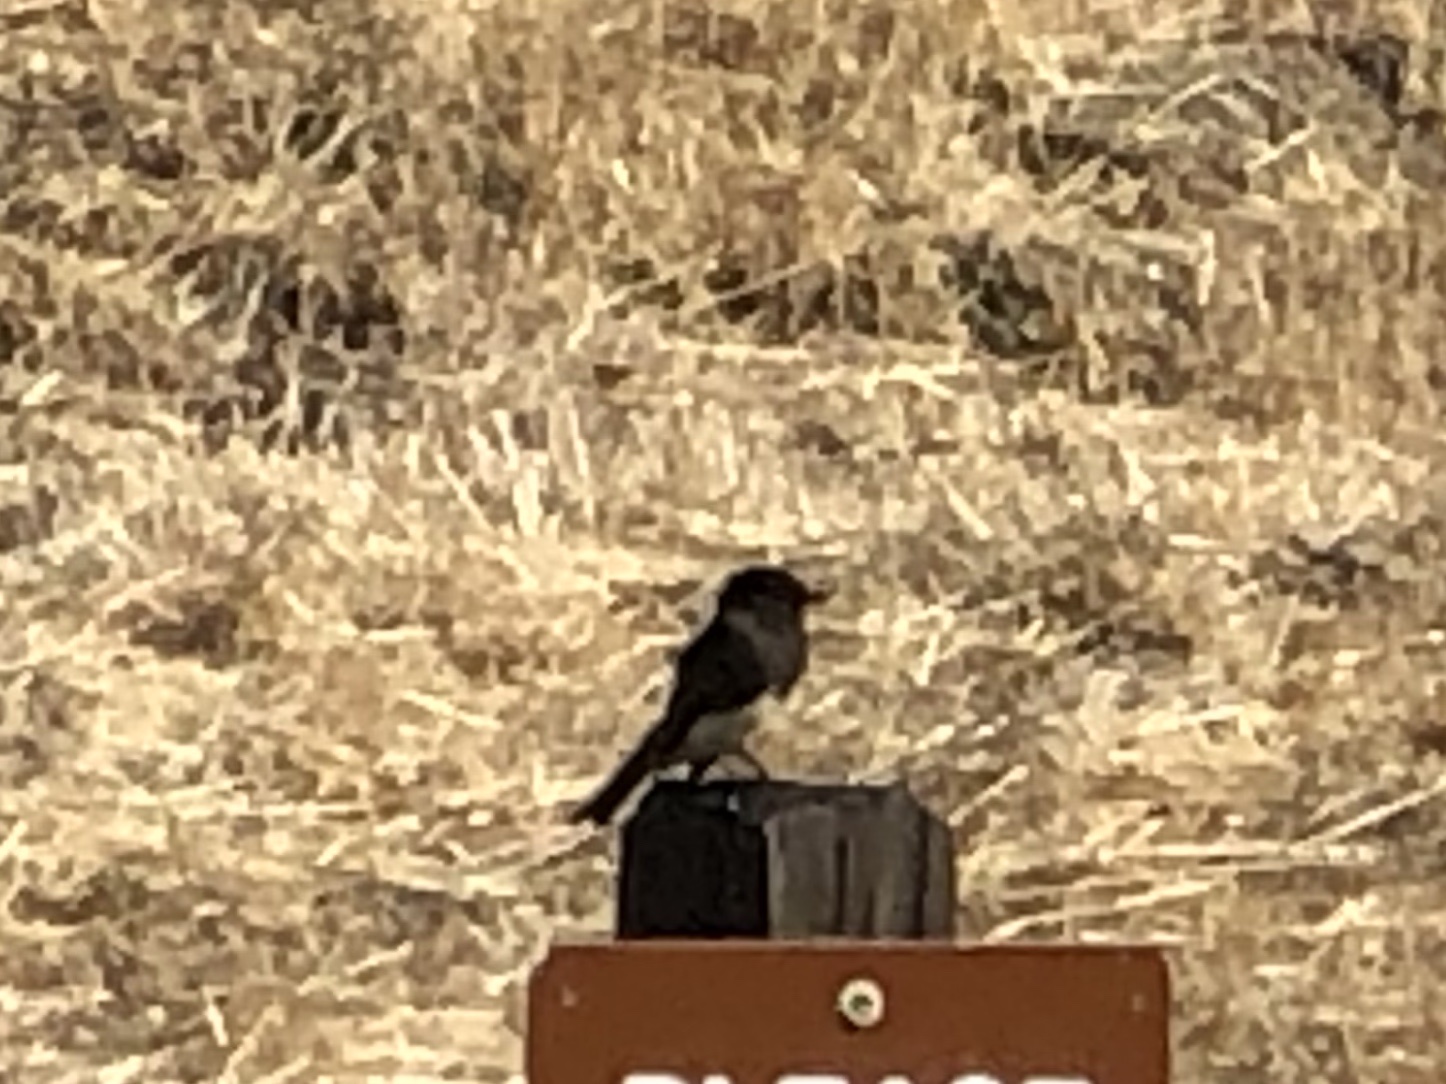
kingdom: Animalia
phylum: Chordata
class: Aves
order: Passeriformes
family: Tyrannidae
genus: Sayornis
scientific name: Sayornis nigricans
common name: Black phoebe
